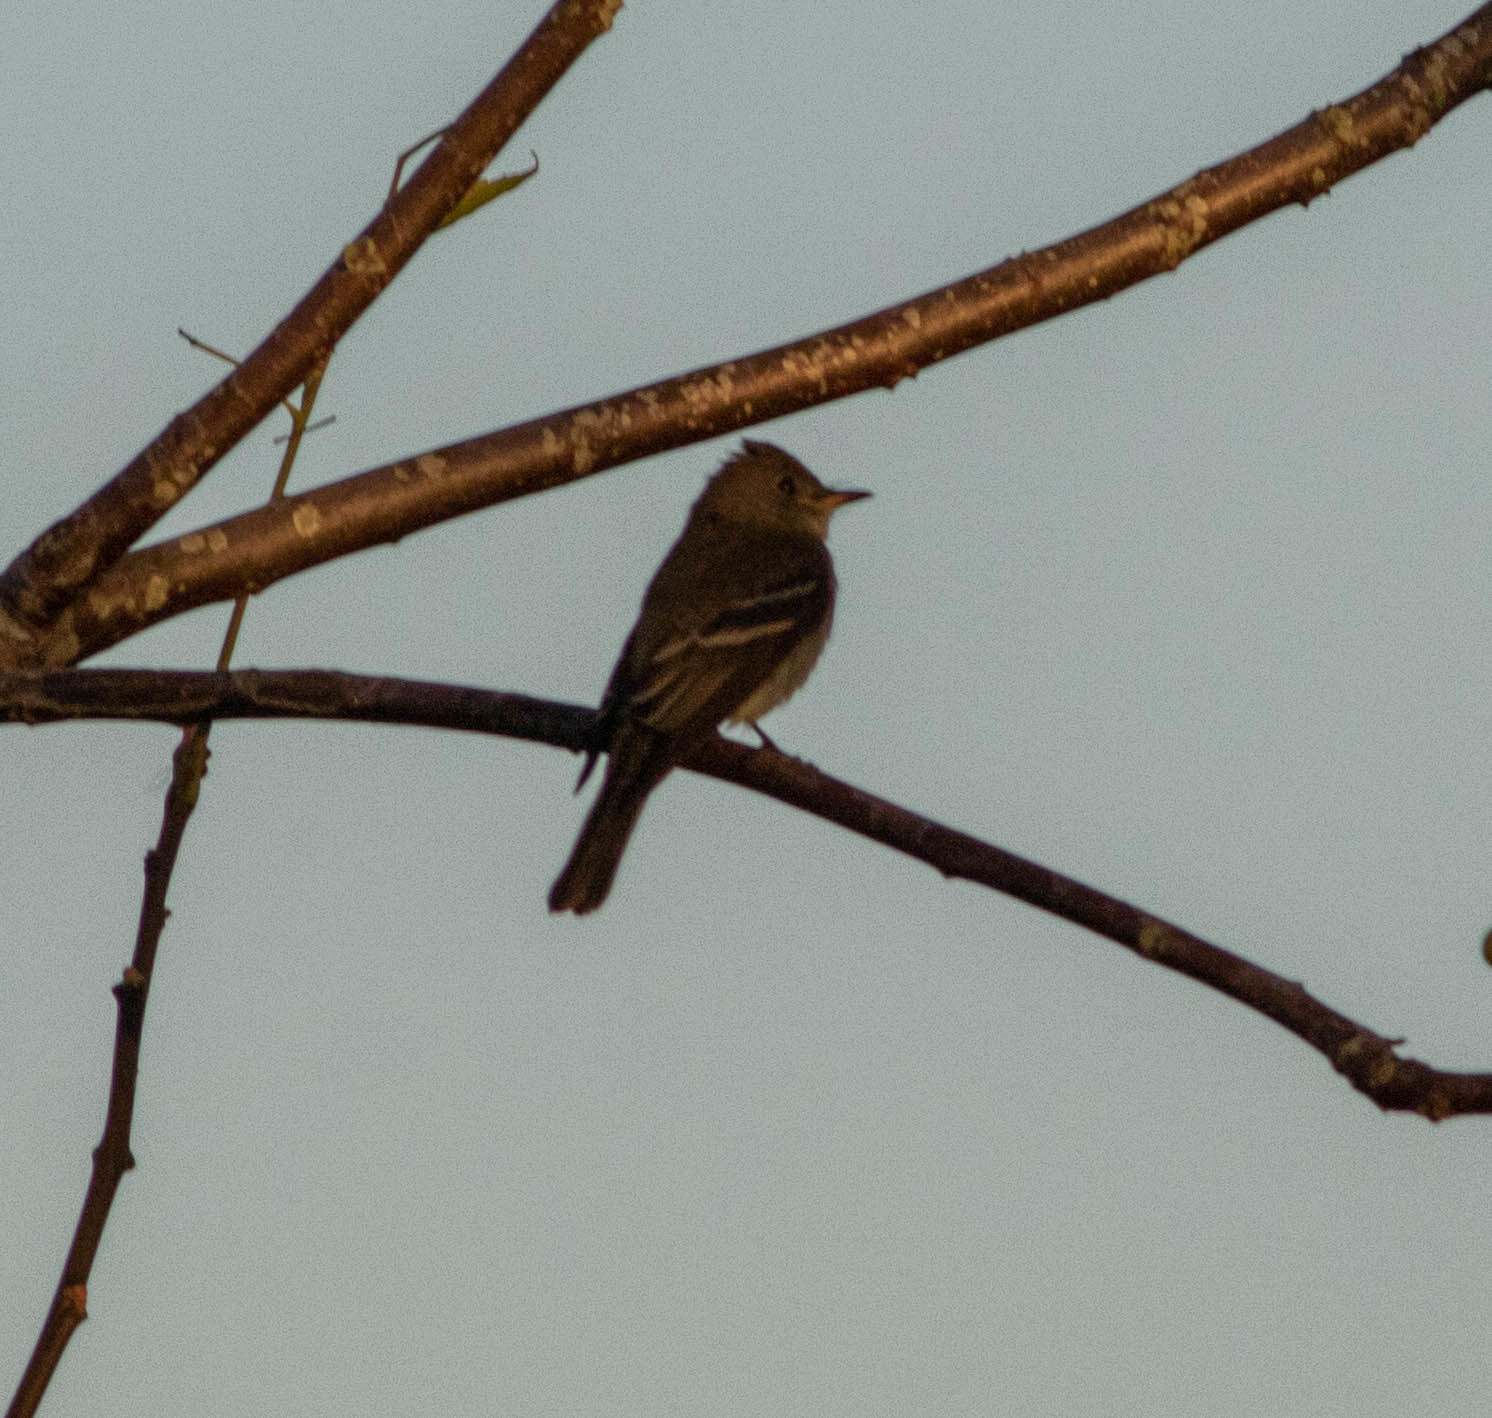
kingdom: Animalia
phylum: Chordata
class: Aves
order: Passeriformes
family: Tyrannidae
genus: Contopus
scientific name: Contopus virens
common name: Eastern wood-pewee
